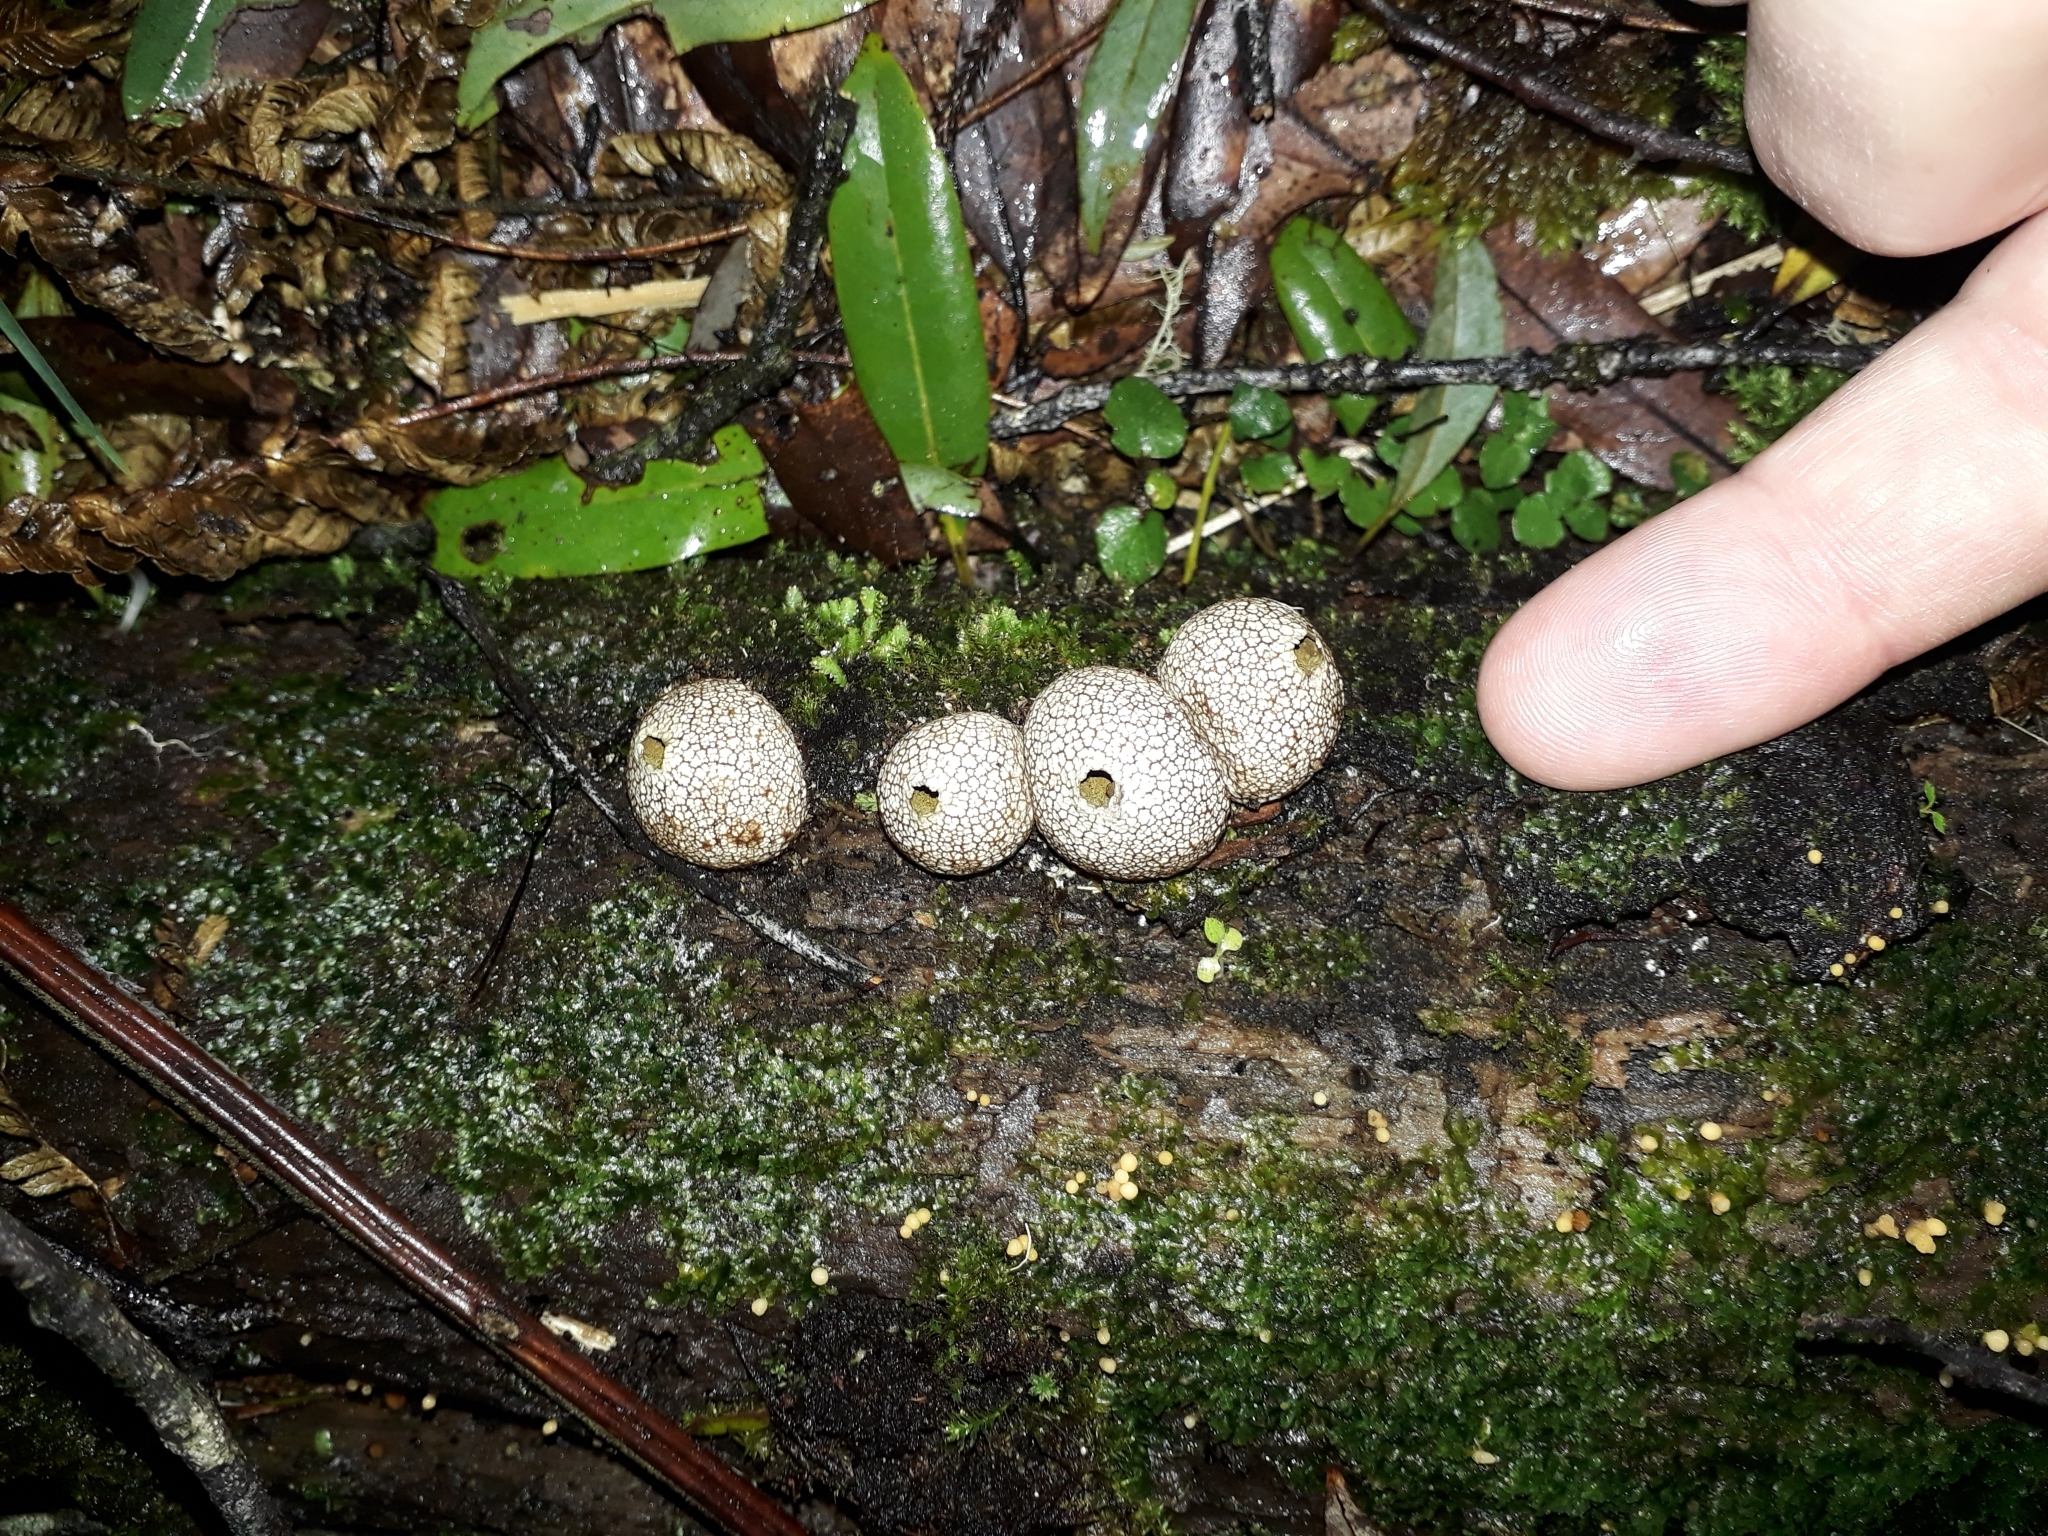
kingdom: Fungi
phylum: Basidiomycota
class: Agaricomycetes
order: Agaricales
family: Lycoperdaceae
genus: Lycoperdon
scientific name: Lycoperdon compactum
